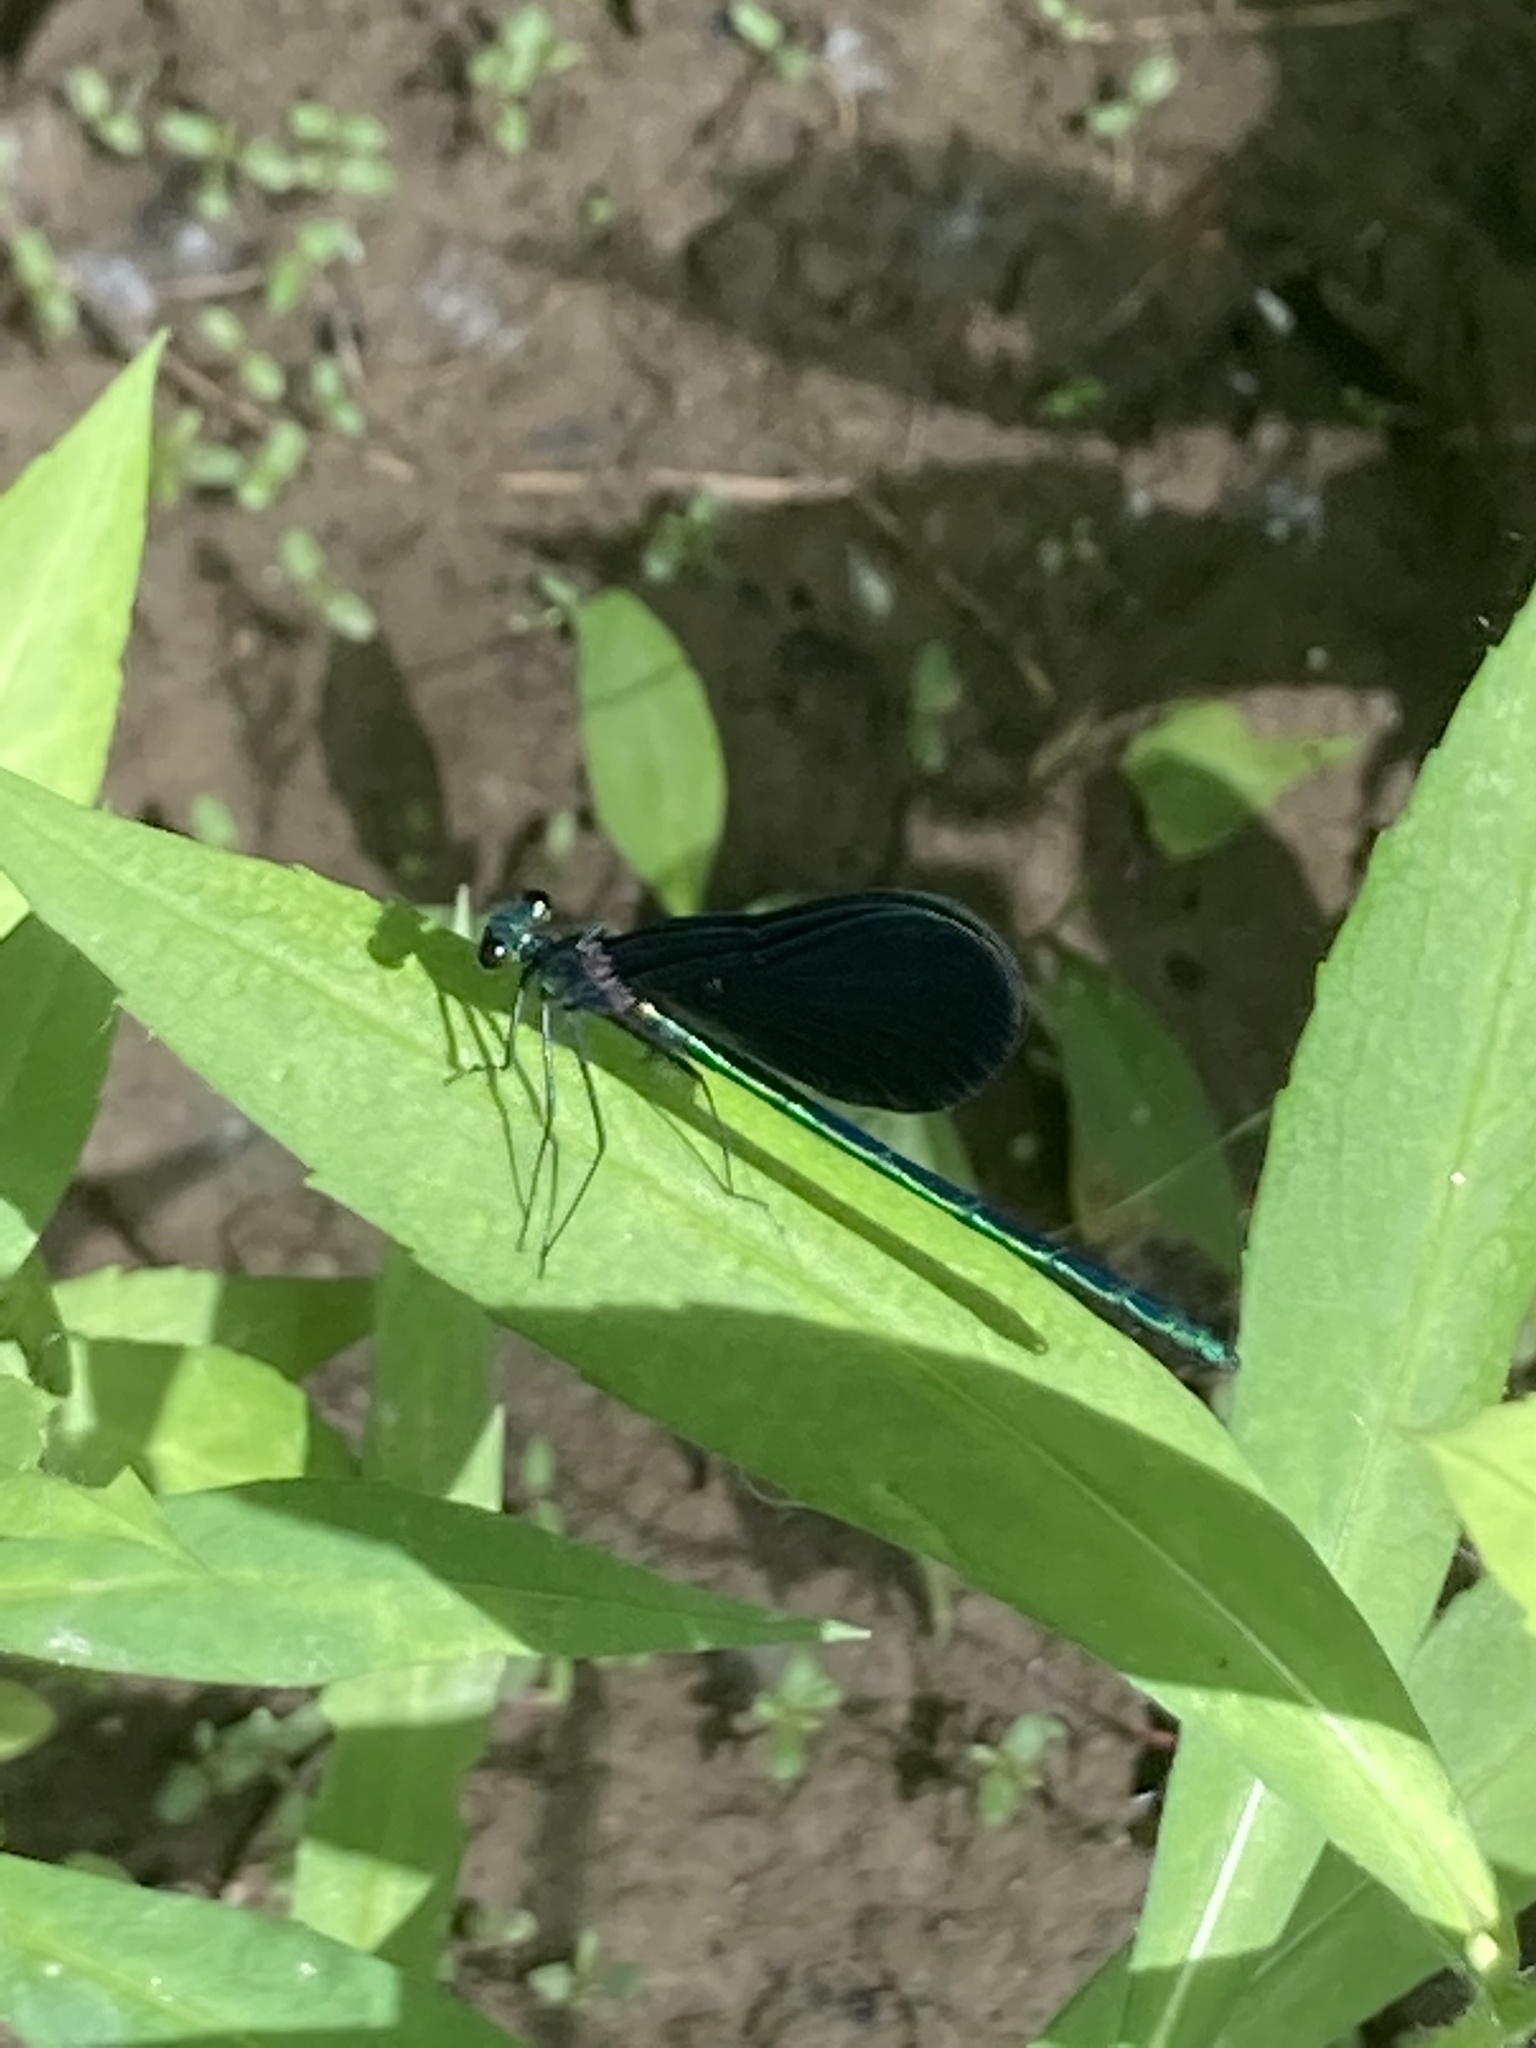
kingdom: Animalia
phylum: Arthropoda
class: Insecta
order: Odonata
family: Calopterygidae
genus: Calopteryx
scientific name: Calopteryx maculata
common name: Ebony jewelwing
